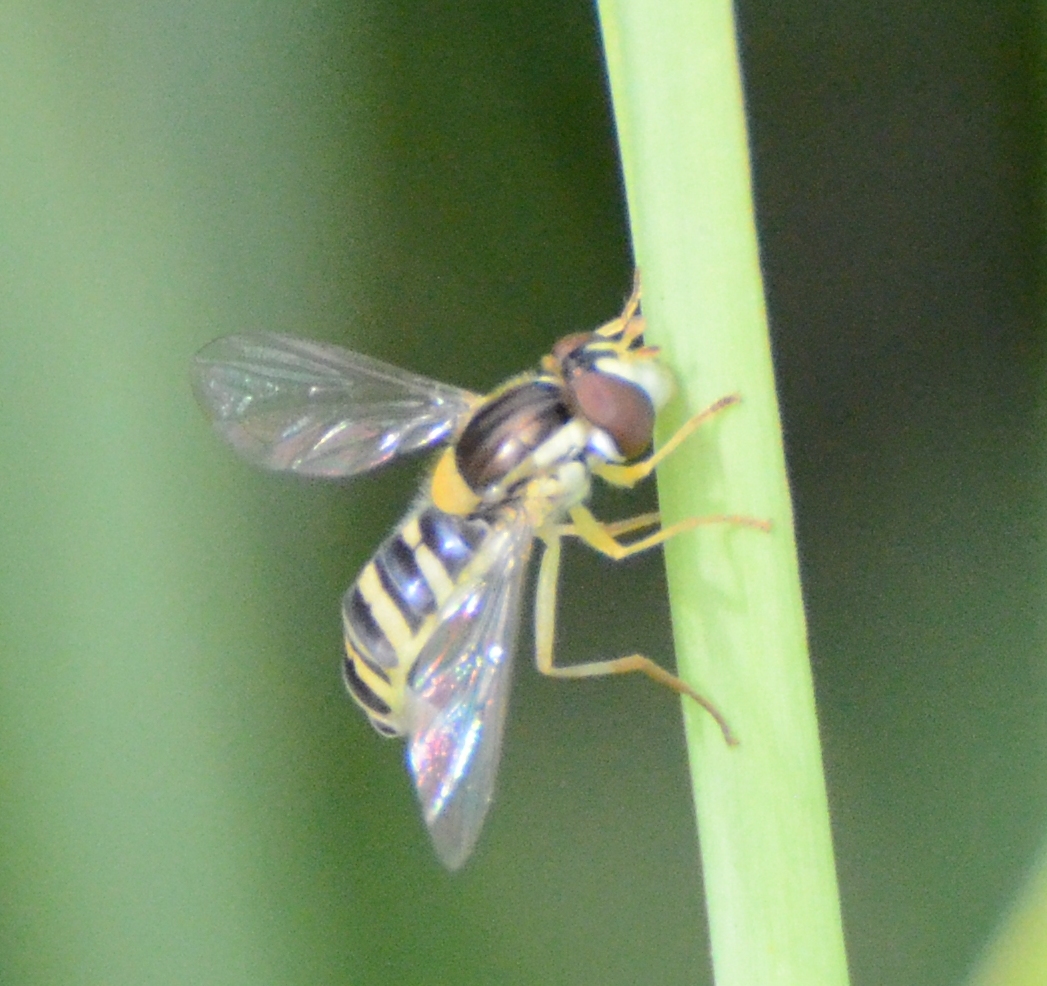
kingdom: Animalia
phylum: Arthropoda
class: Insecta
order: Diptera
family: Syrphidae
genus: Sphaerophoria
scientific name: Sphaerophoria
